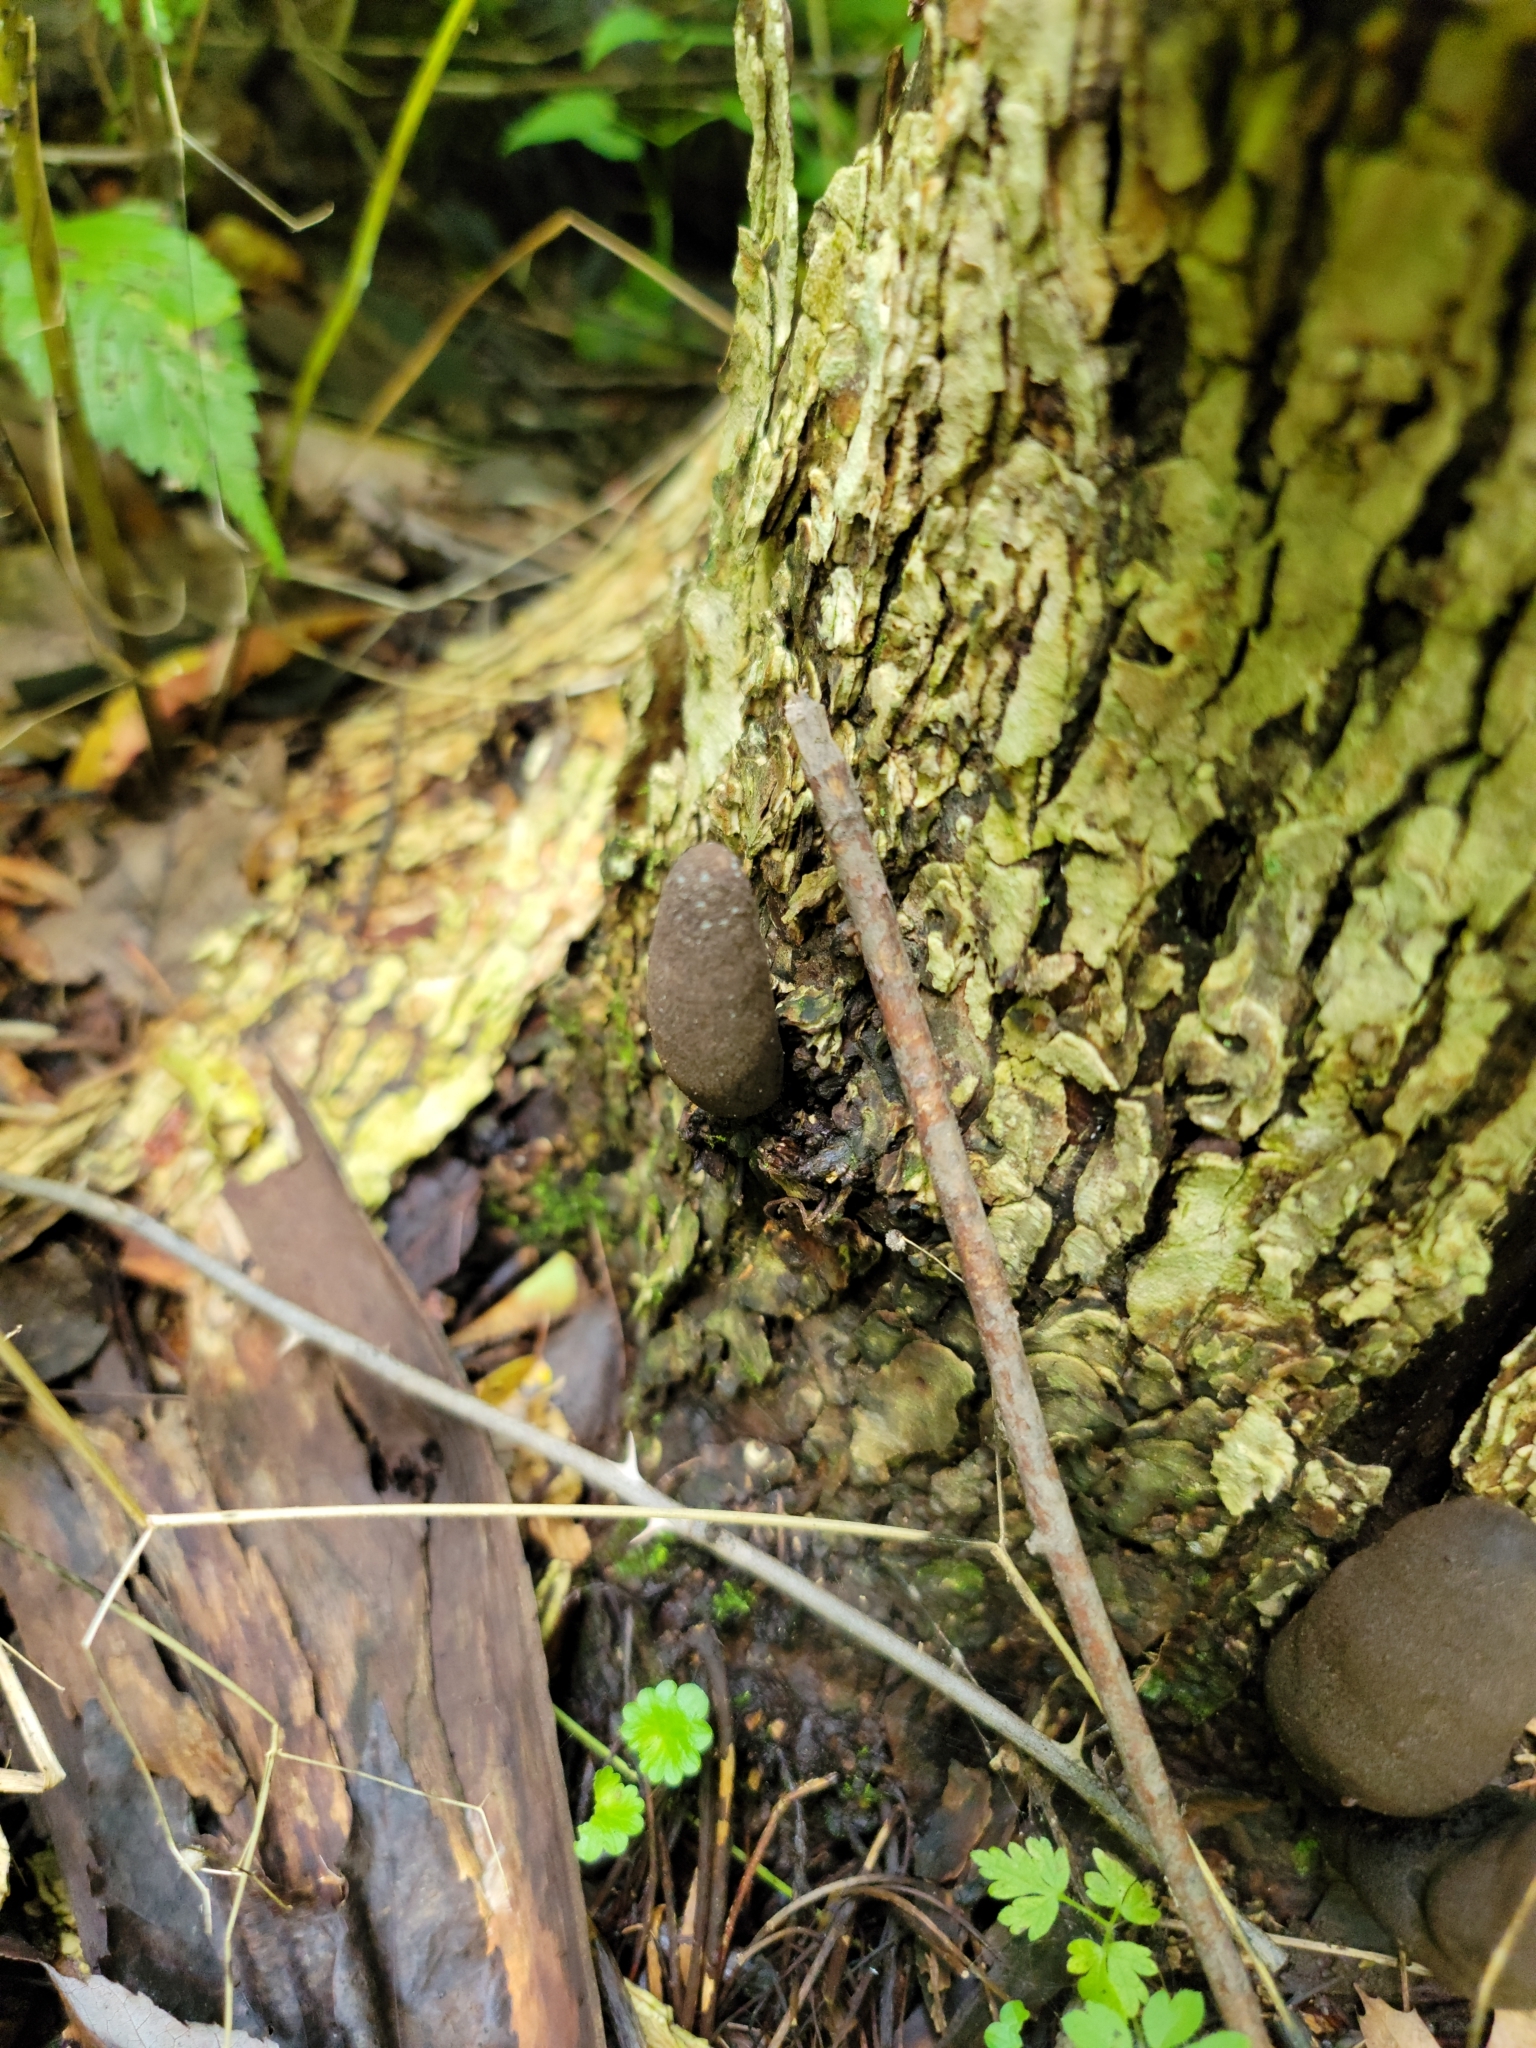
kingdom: Fungi
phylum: Ascomycota
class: Sordariomycetes
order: Xylariales
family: Xylariaceae
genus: Xylaria
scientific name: Xylaria polymorpha
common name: Dead man's fingers
